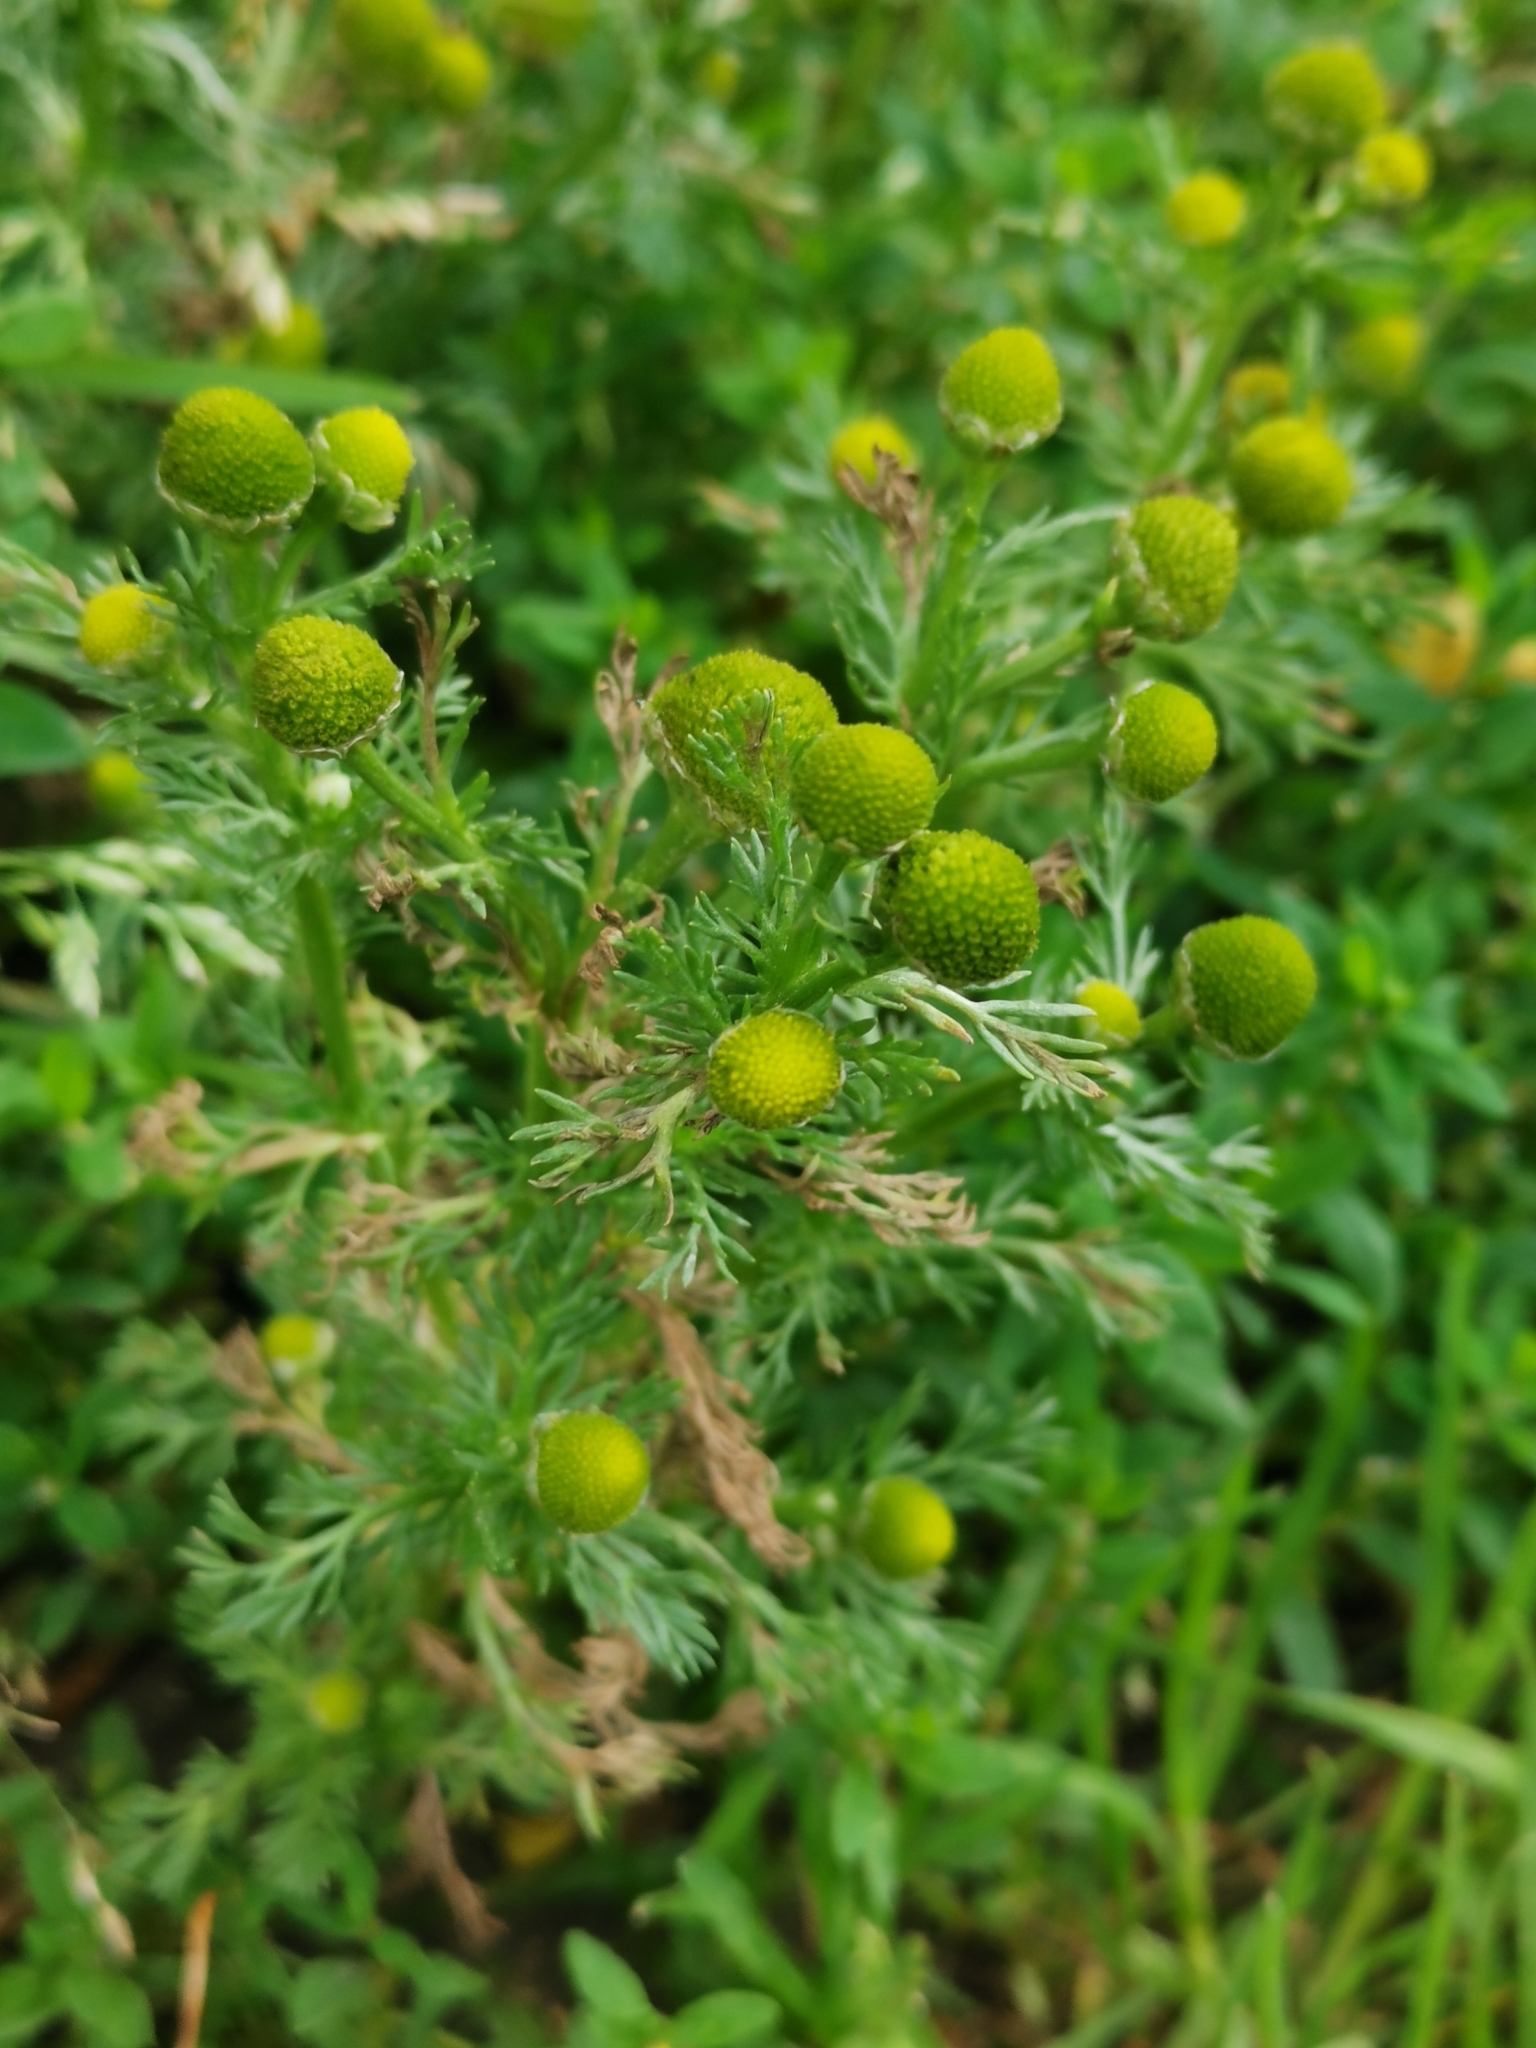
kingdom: Plantae
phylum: Tracheophyta
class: Magnoliopsida
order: Asterales
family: Asteraceae
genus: Matricaria
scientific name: Matricaria discoidea
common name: Disc mayweed
